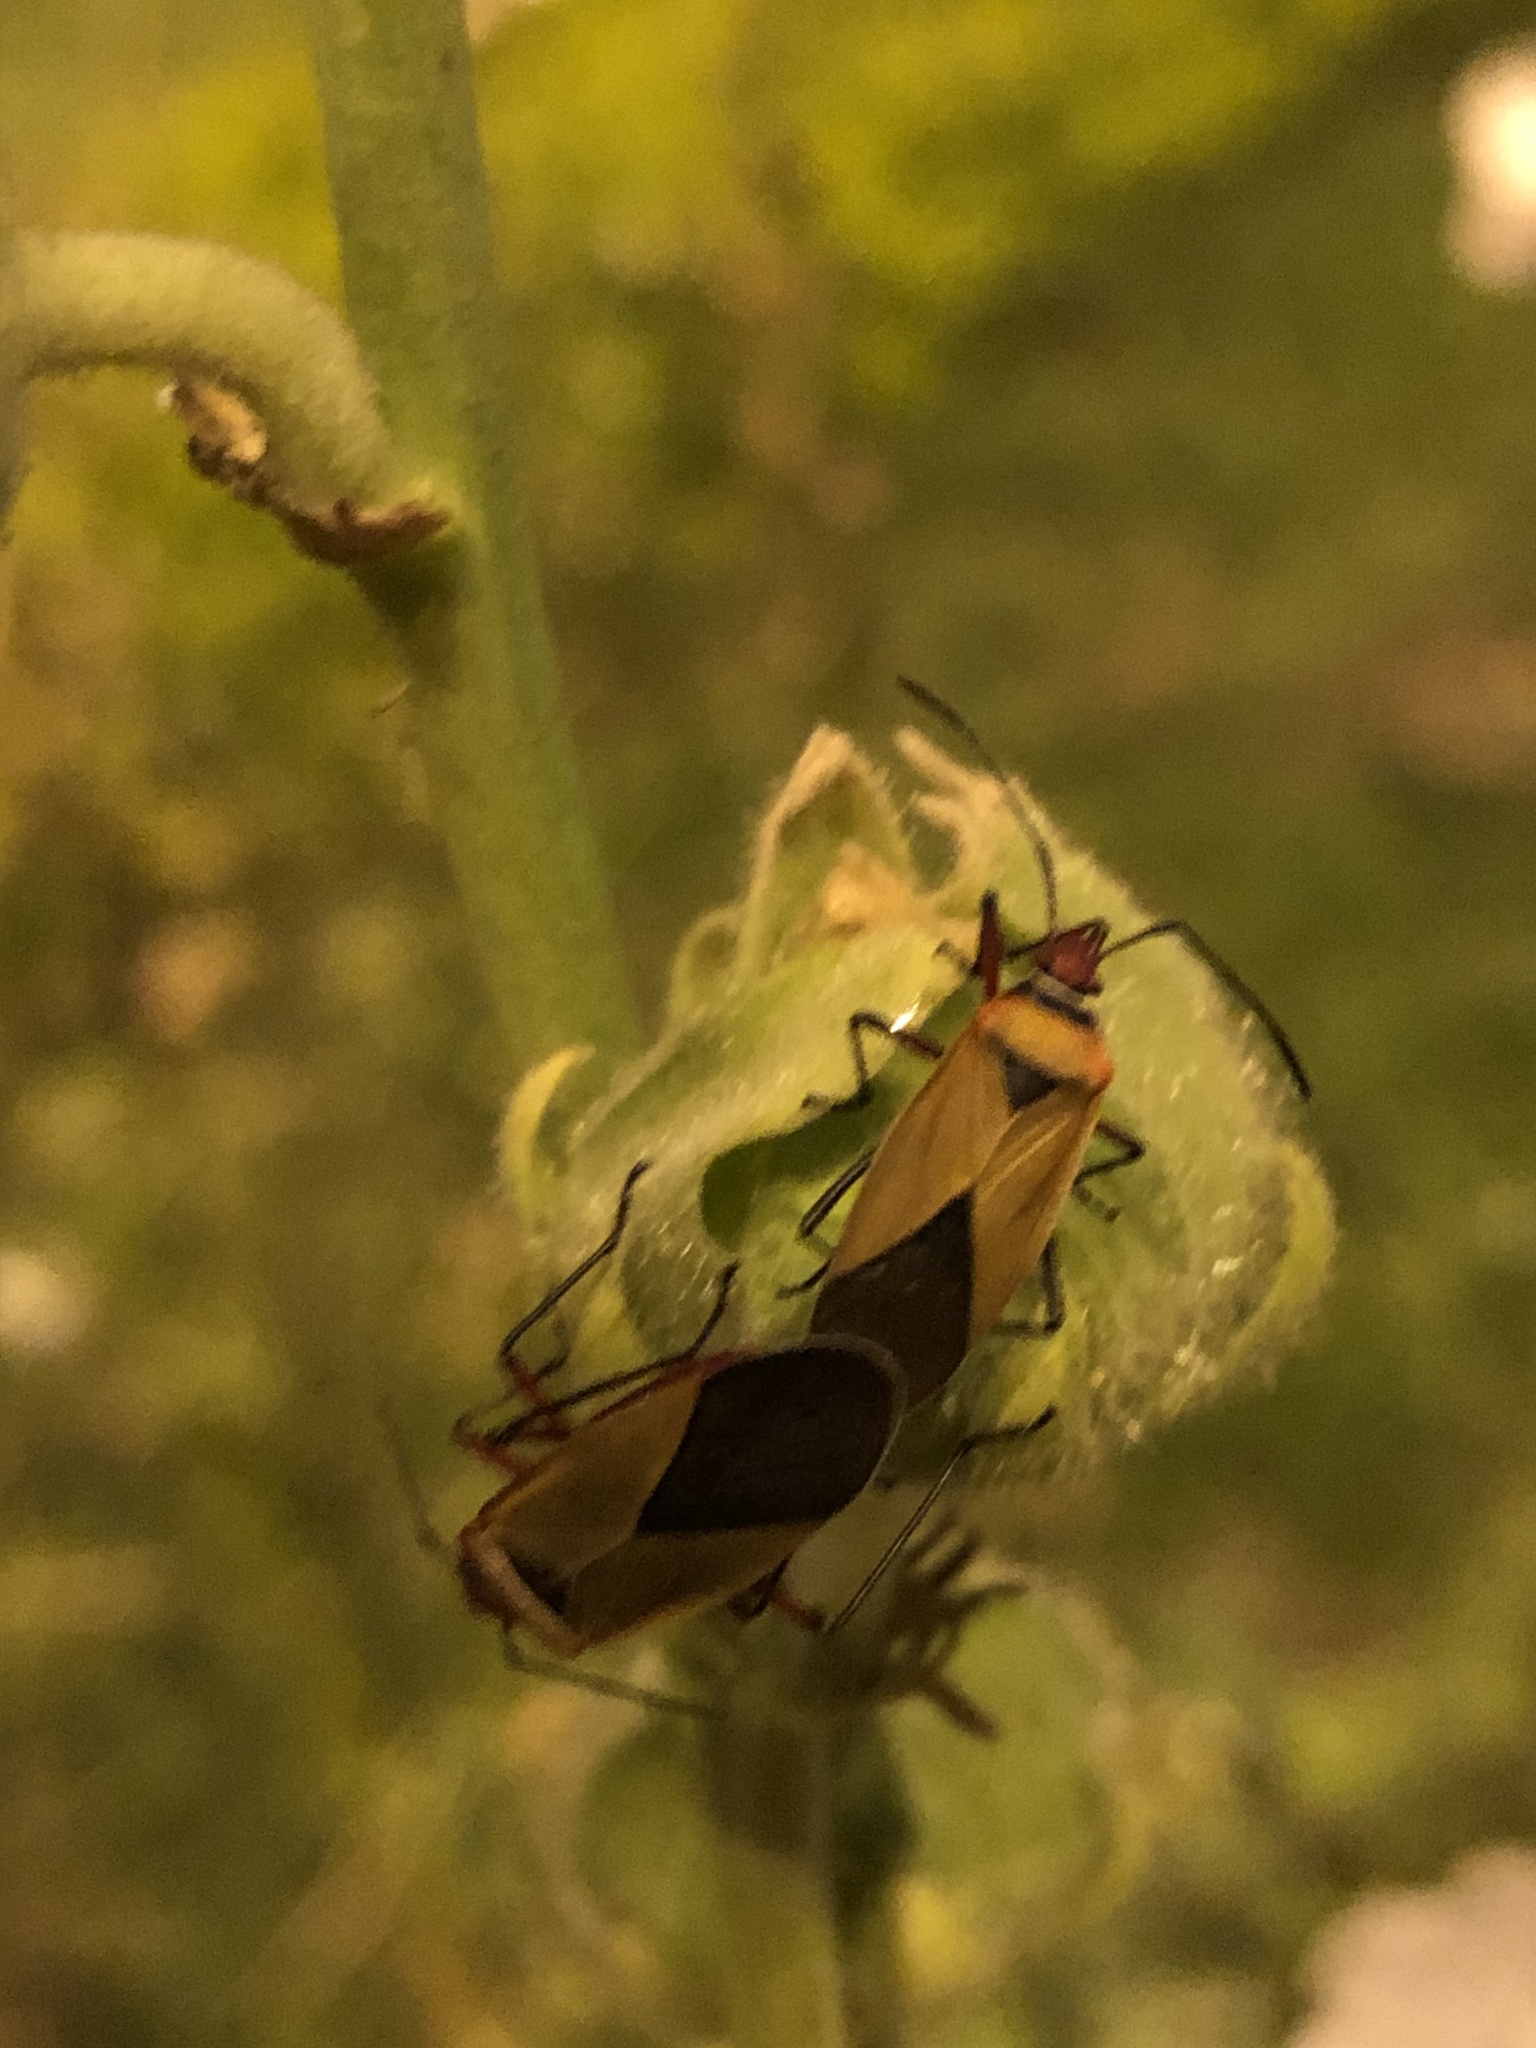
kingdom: Animalia
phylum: Arthropoda
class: Insecta
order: Hemiptera
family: Pyrrhocoridae
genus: Dysdercus
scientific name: Dysdercus peruvianus
